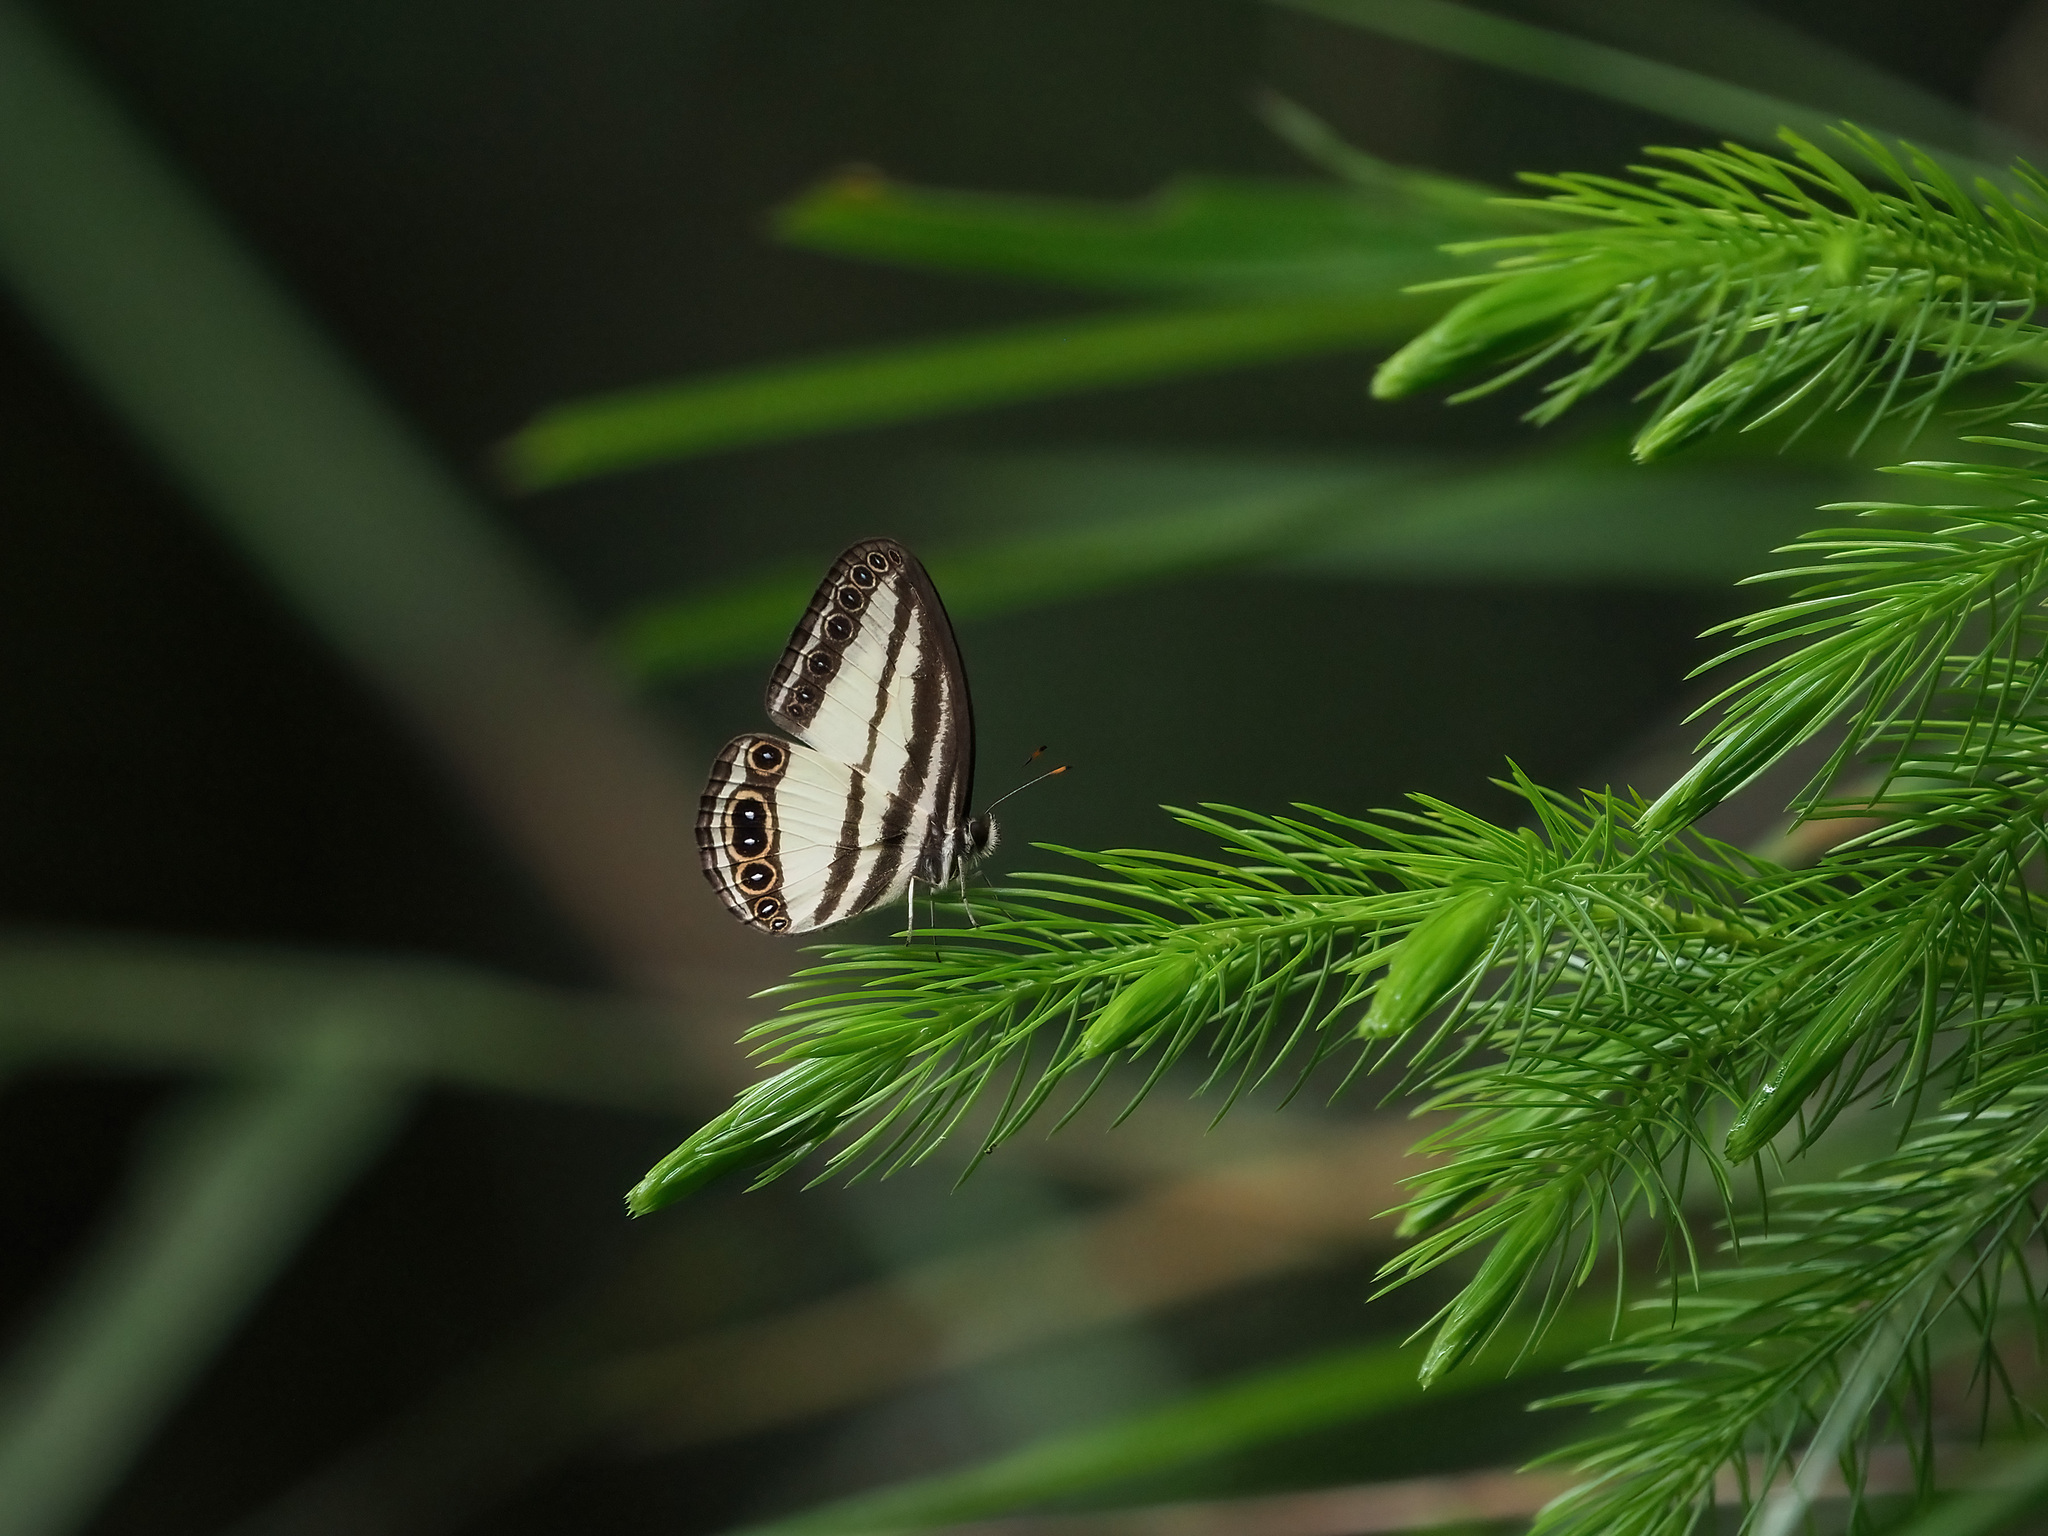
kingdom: Animalia
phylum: Arthropoda
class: Insecta
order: Lepidoptera
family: Nymphalidae
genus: Ragadia
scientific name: Ragadia annulata
